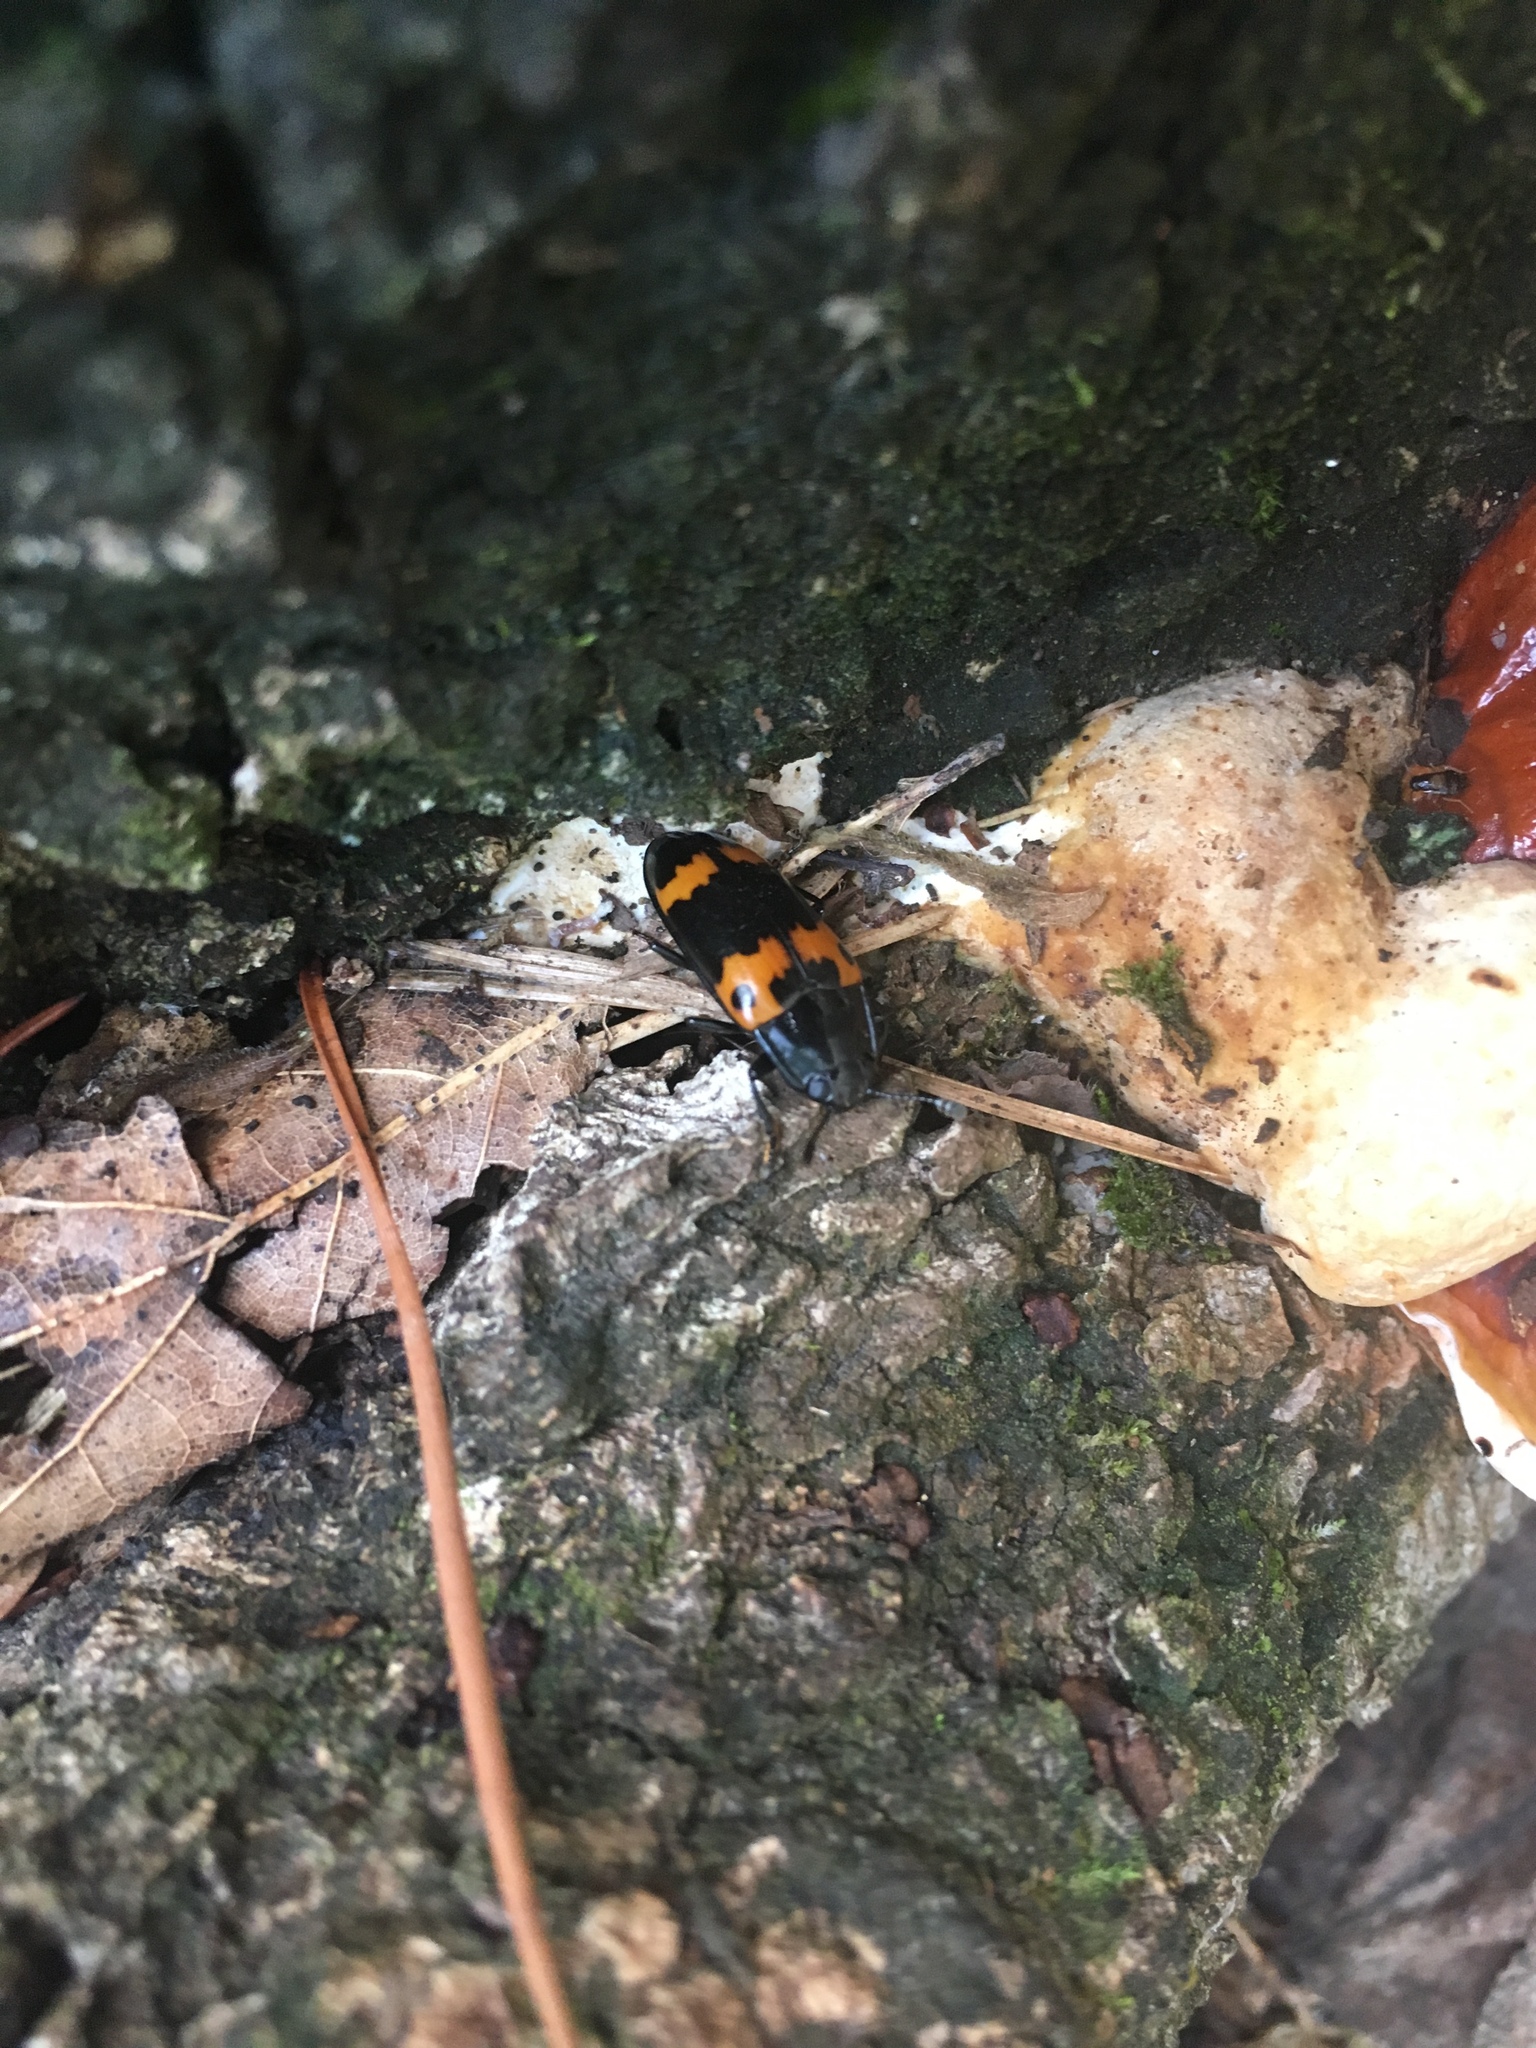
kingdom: Animalia
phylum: Arthropoda
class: Insecta
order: Coleoptera
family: Erotylidae
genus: Megalodacne
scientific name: Megalodacne fasciata
